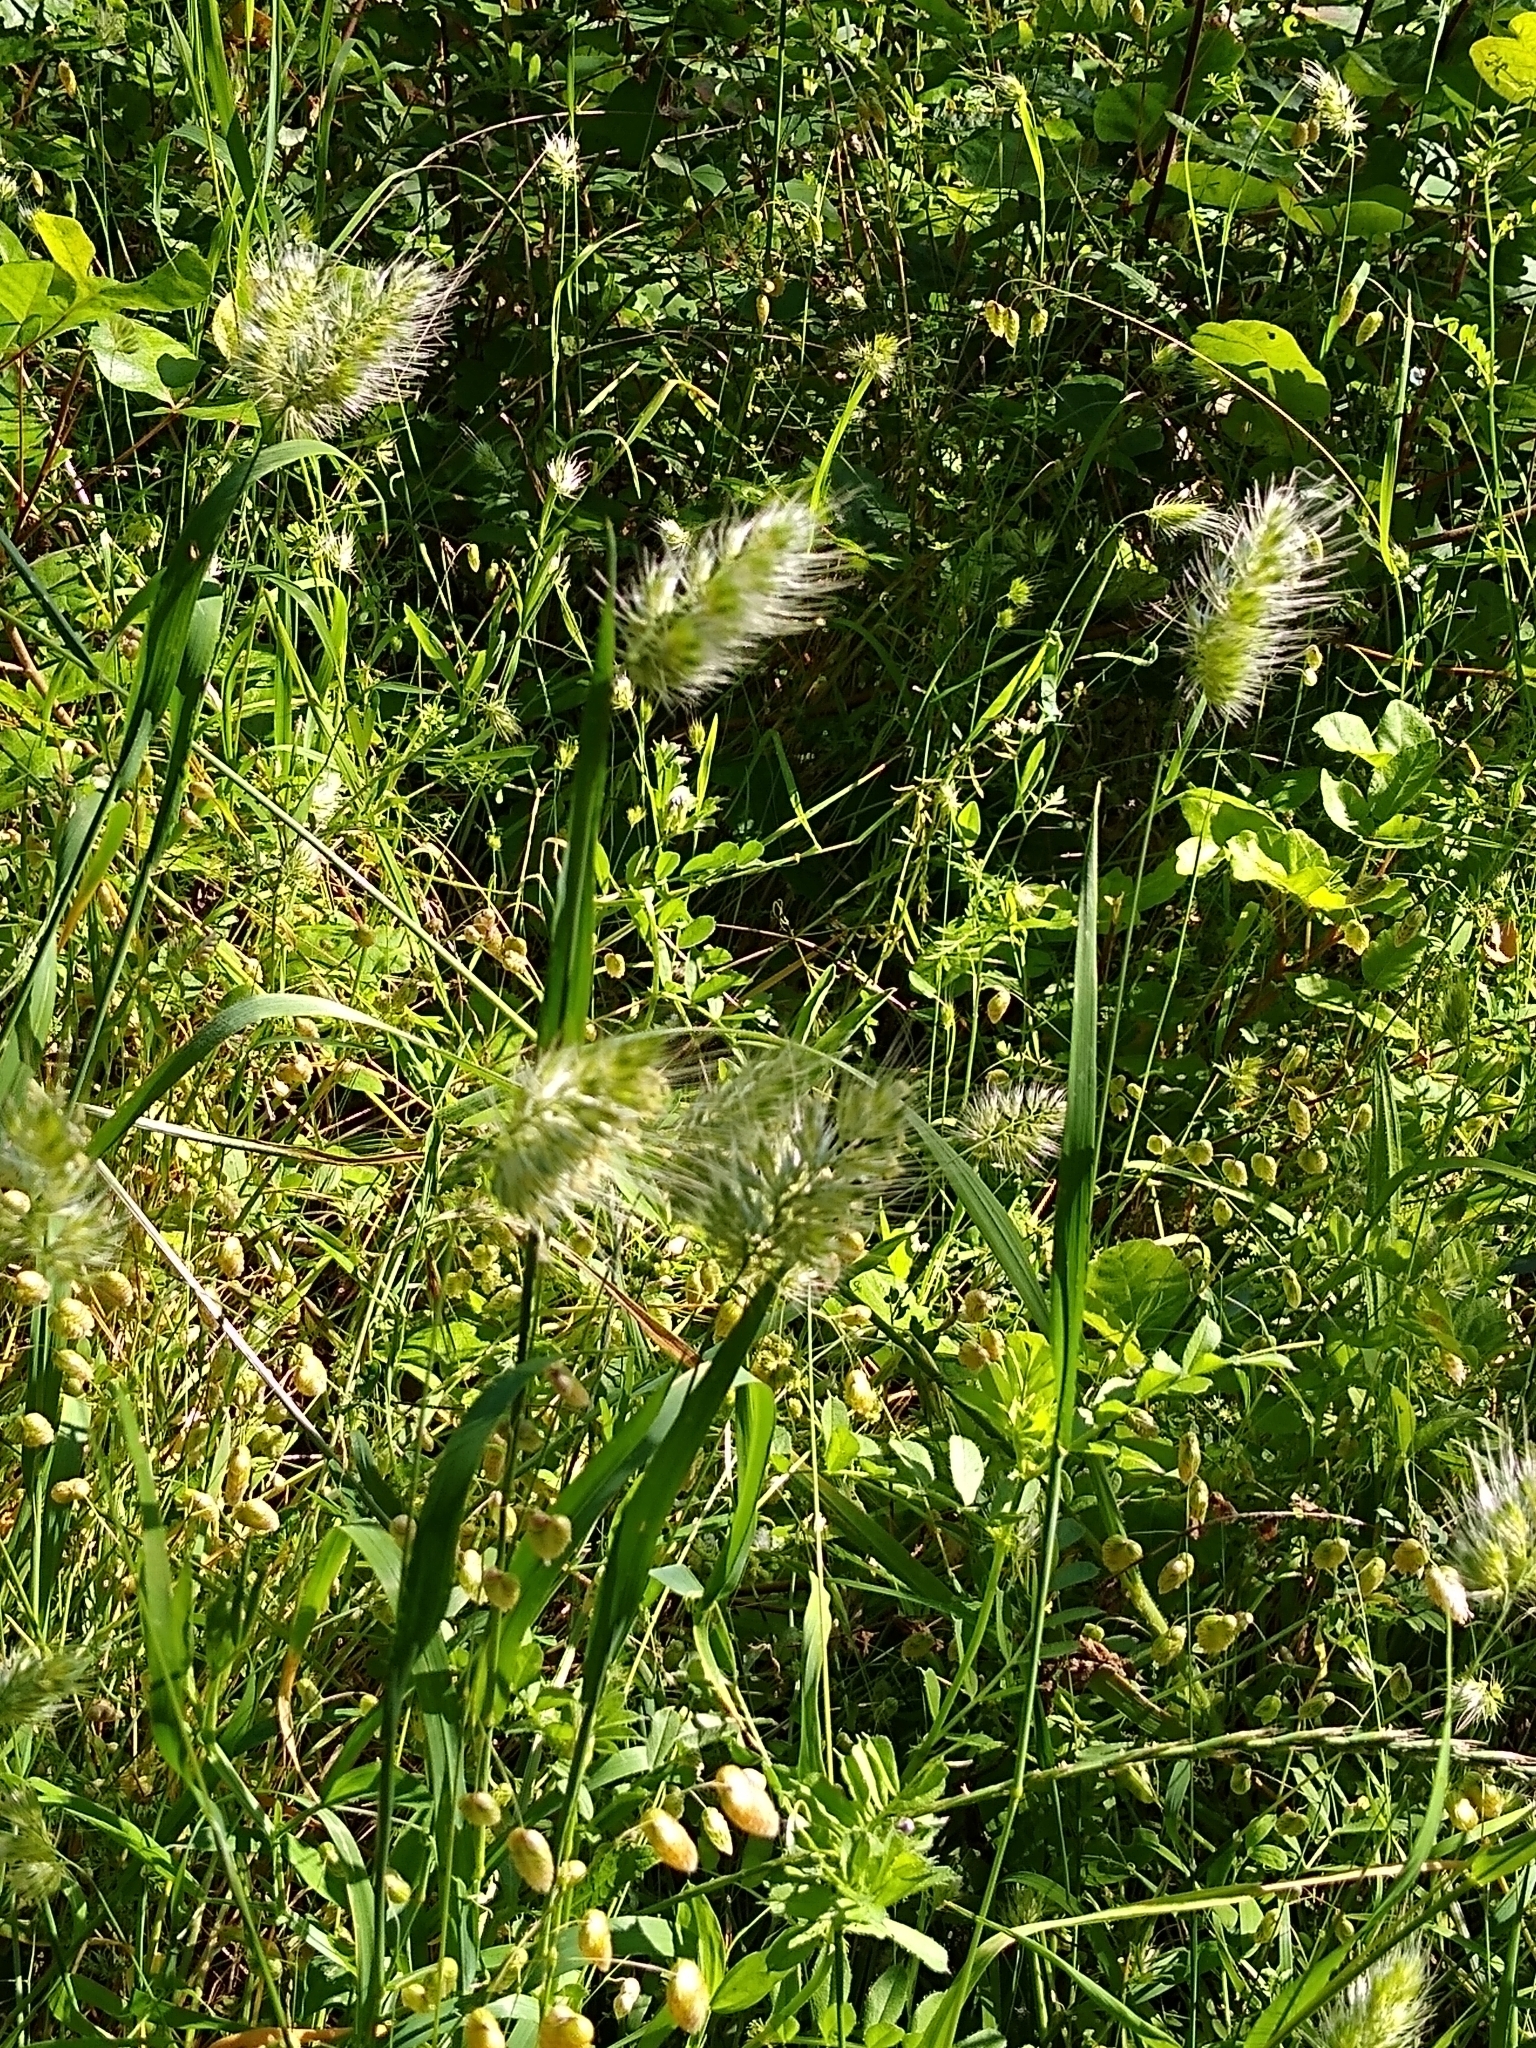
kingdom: Plantae
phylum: Tracheophyta
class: Liliopsida
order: Poales
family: Poaceae
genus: Cynosurus
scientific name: Cynosurus echinatus
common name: Rough dog's-tail
